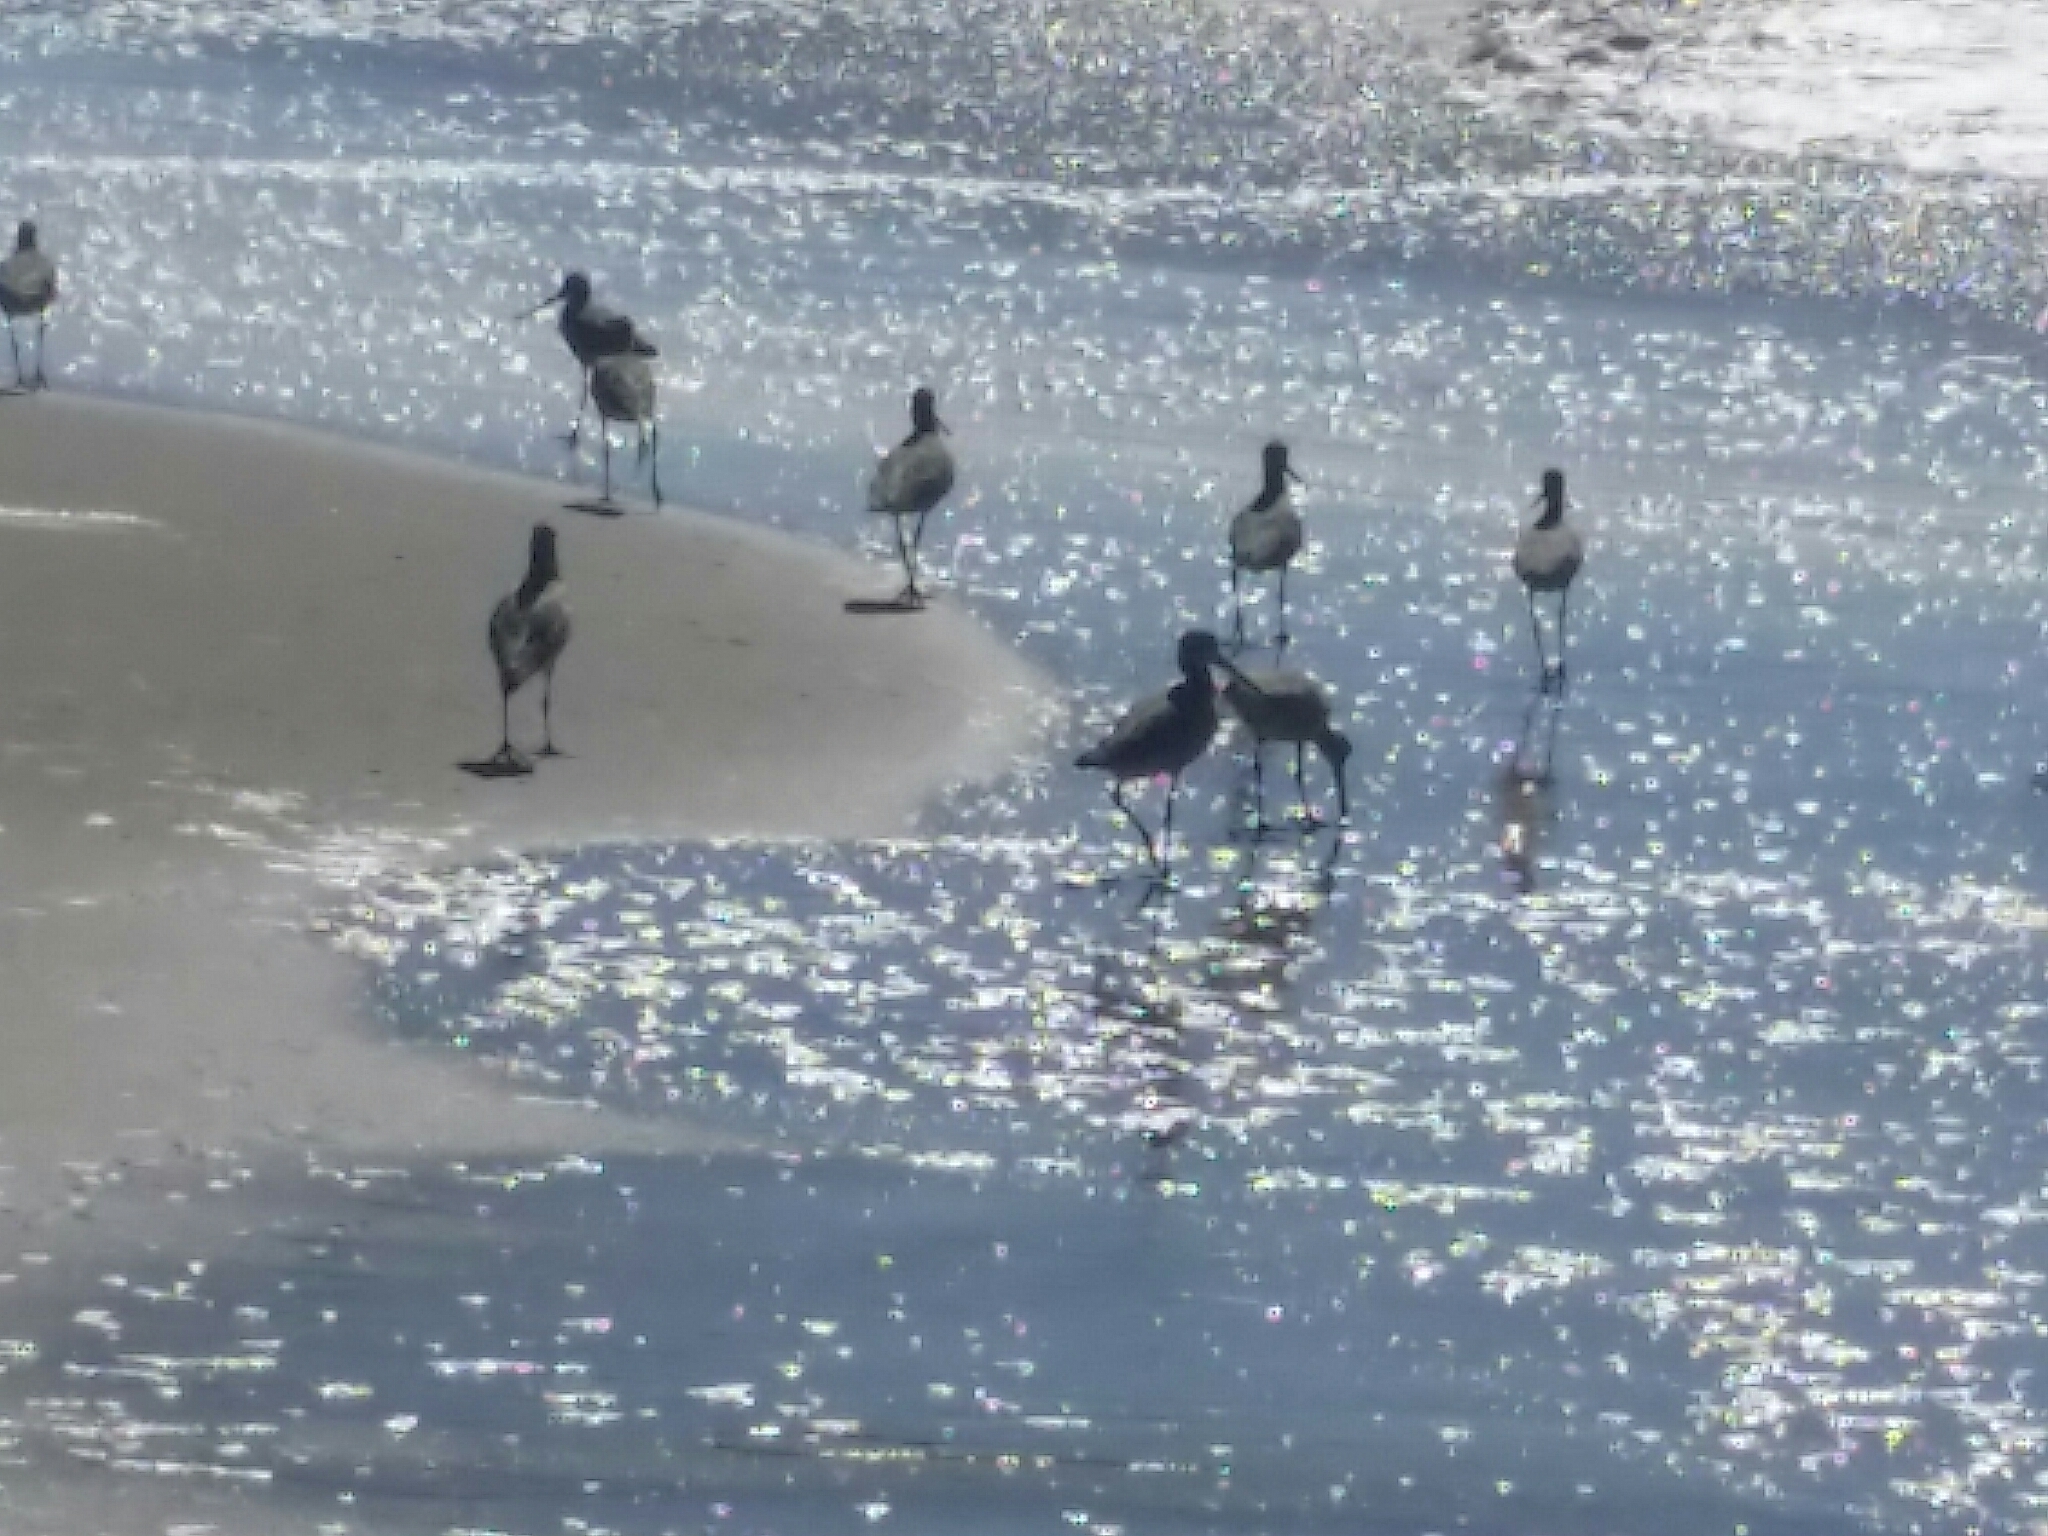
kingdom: Animalia
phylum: Chordata
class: Aves
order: Charadriiformes
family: Scolopacidae
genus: Tringa
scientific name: Tringa semipalmata
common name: Willet
